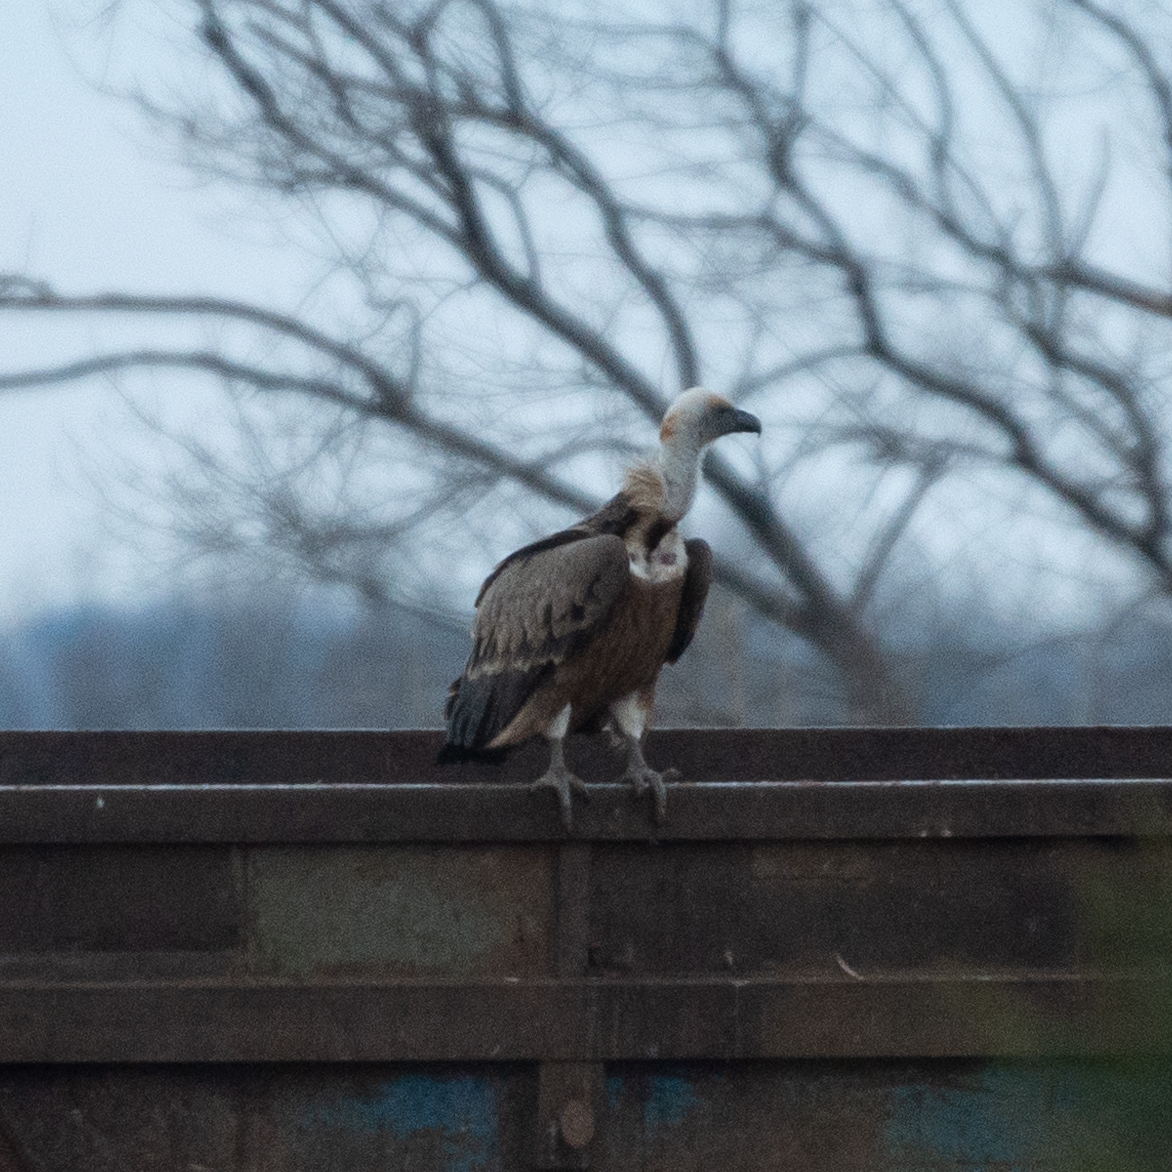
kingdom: Animalia
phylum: Chordata
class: Aves
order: Accipitriformes
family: Accipitridae
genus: Gyps
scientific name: Gyps fulvus
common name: Griffon vulture
